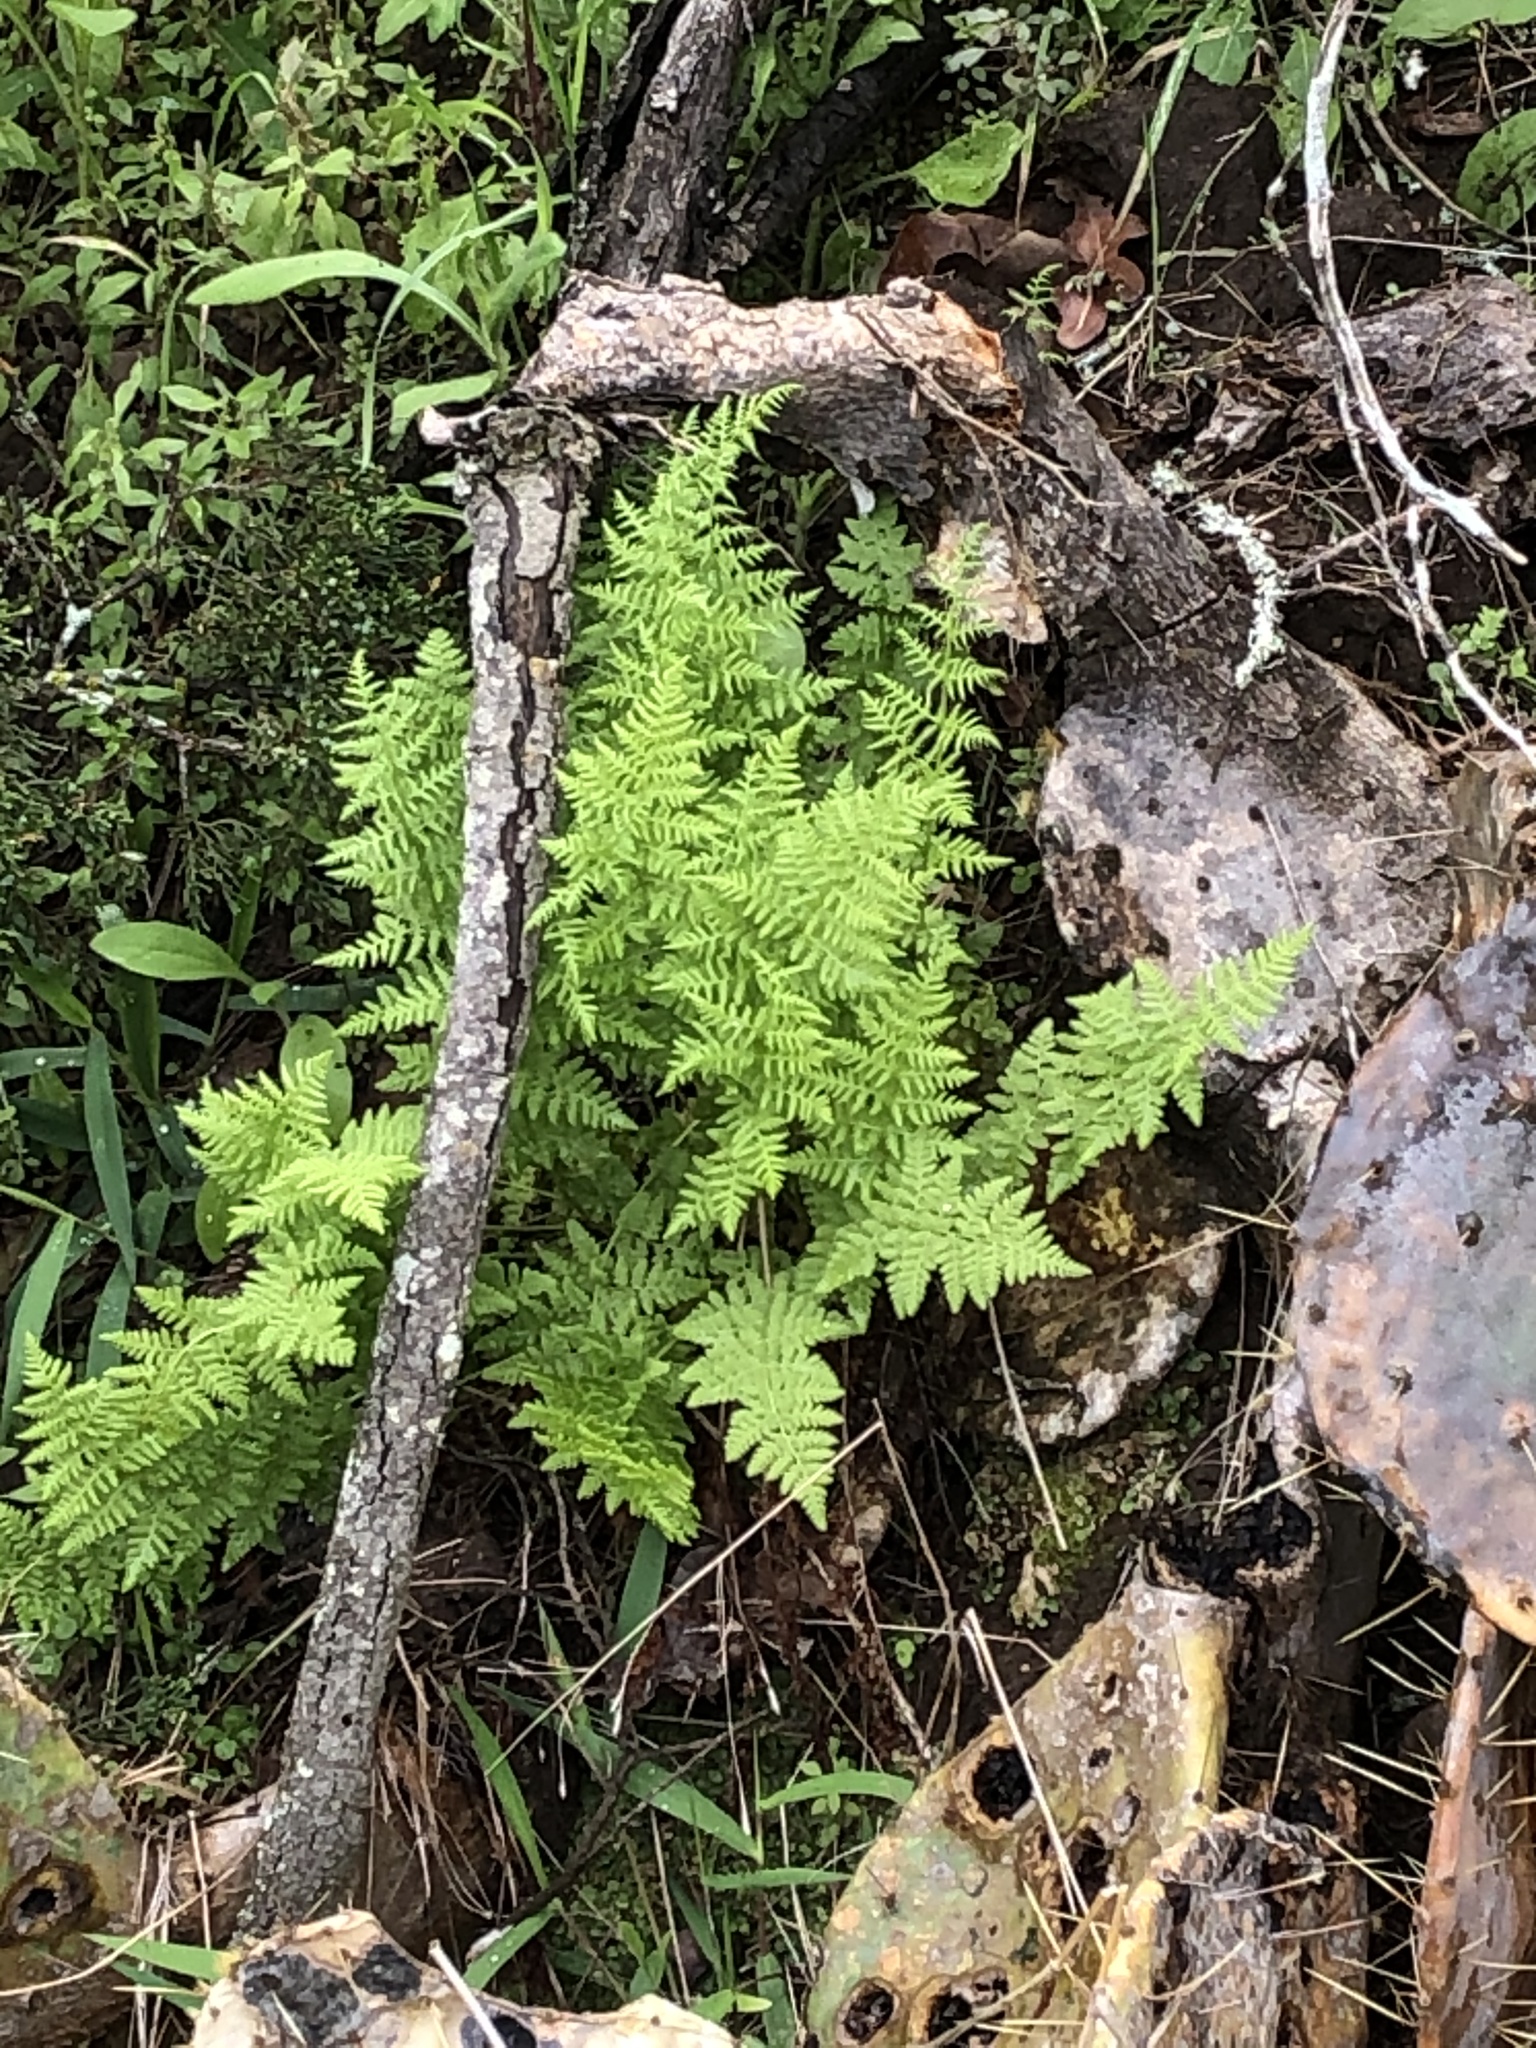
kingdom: Plantae
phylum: Tracheophyta
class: Polypodiopsida
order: Polypodiales
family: Woodsiaceae
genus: Physematium
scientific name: Physematium obtusum
